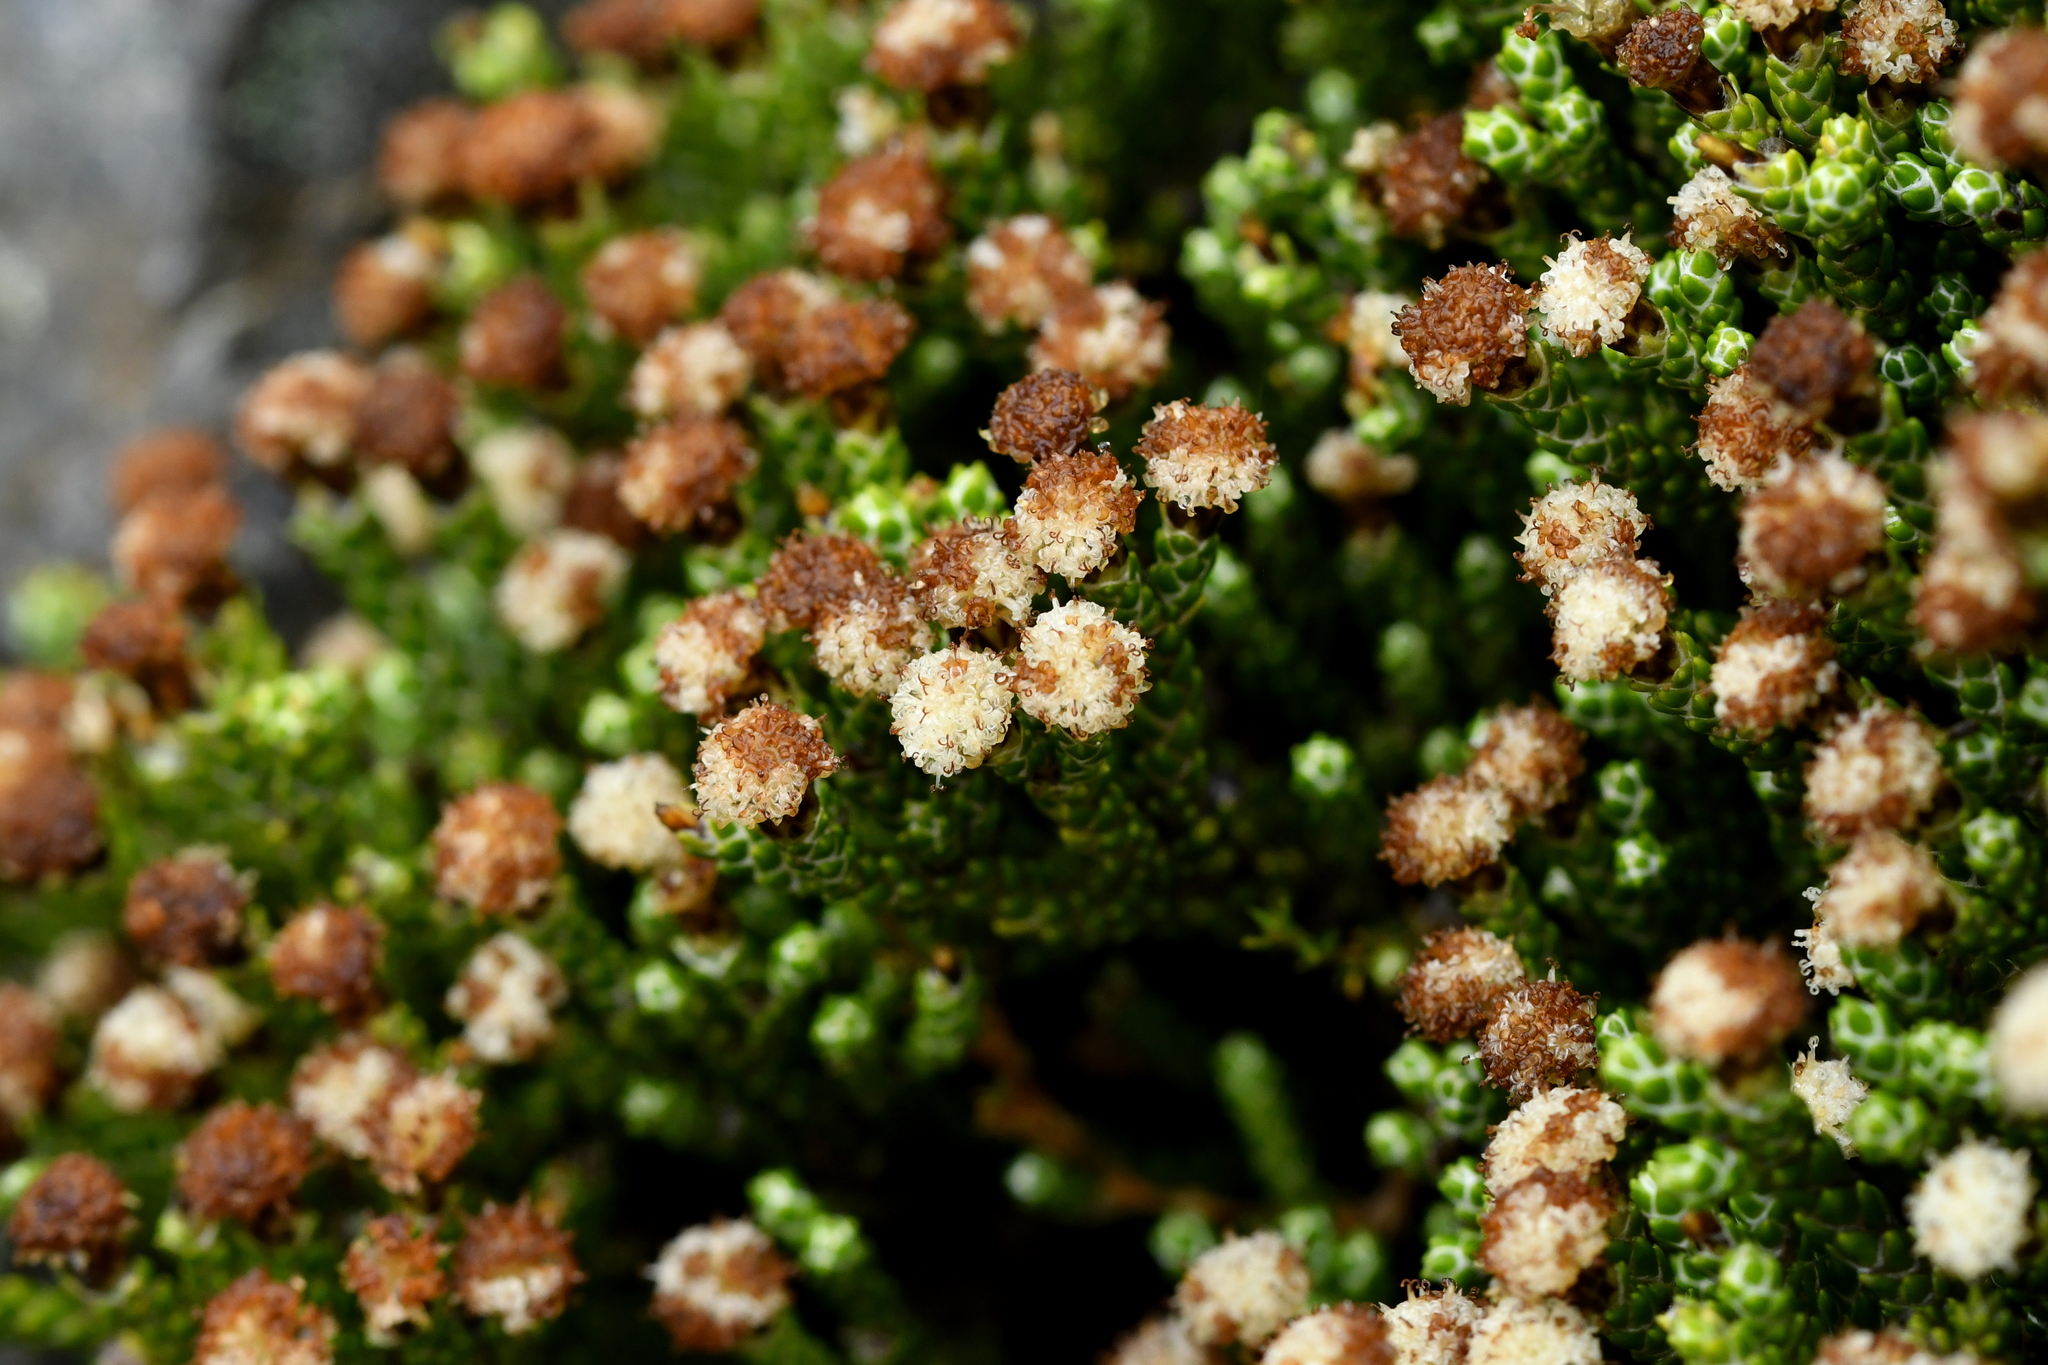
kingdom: Plantae
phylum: Tracheophyta
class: Magnoliopsida
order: Asterales
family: Asteraceae
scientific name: Asteraceae
